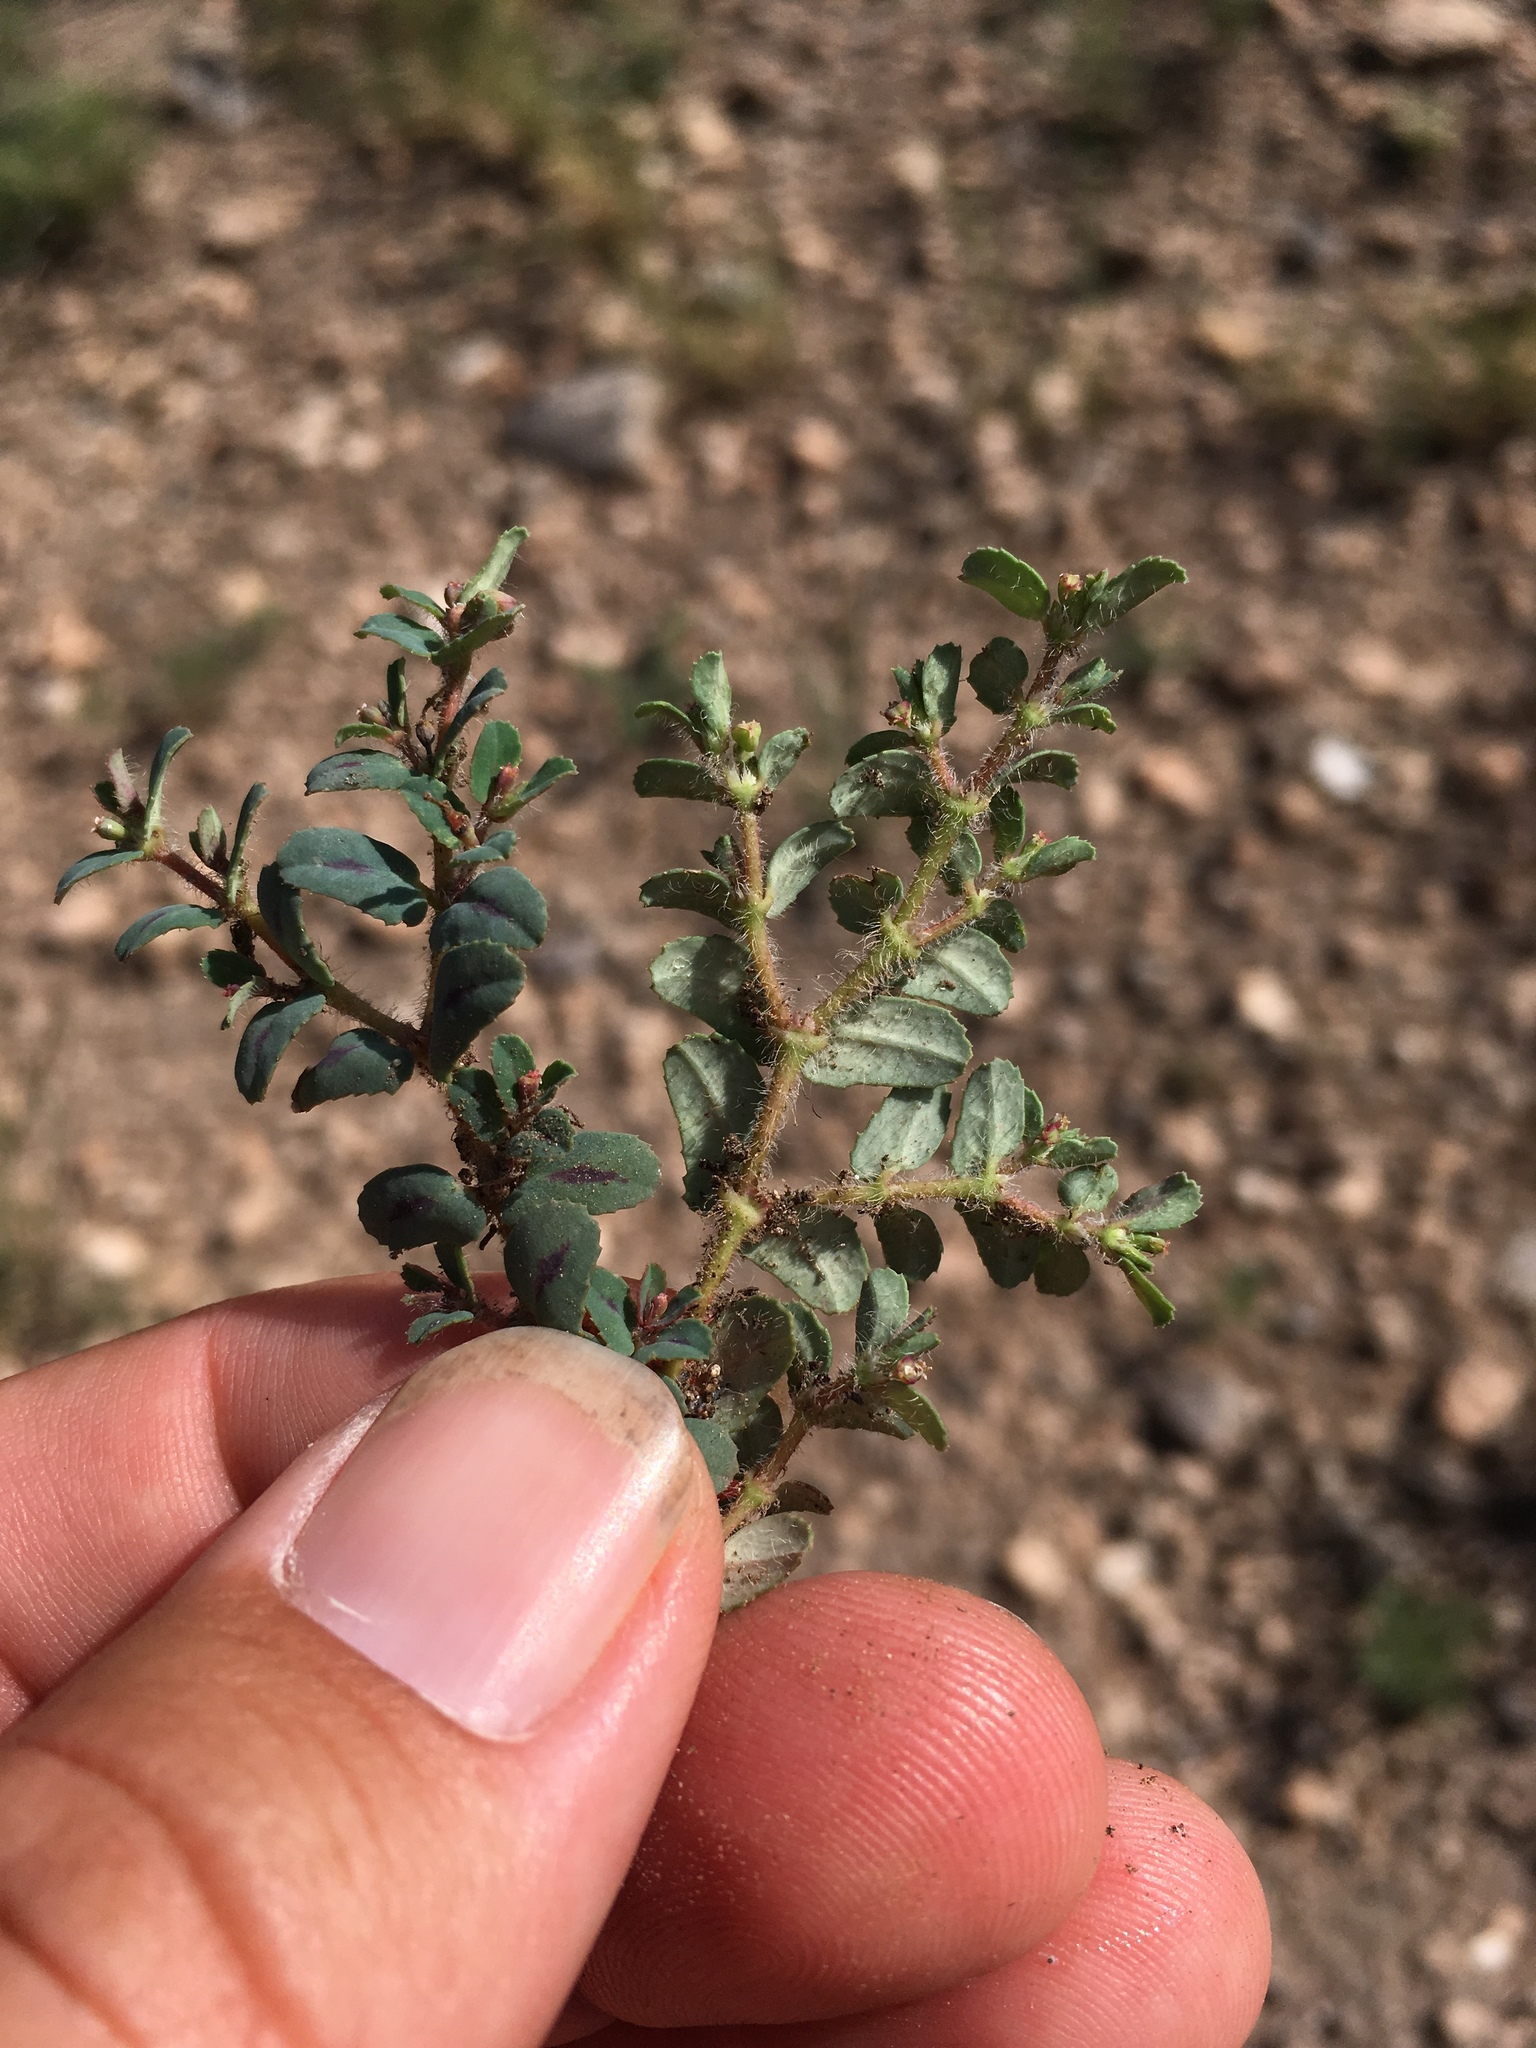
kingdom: Plantae
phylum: Tracheophyta
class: Magnoliopsida
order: Malpighiales
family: Euphorbiaceae
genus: Euphorbia
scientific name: Euphorbia serrula
